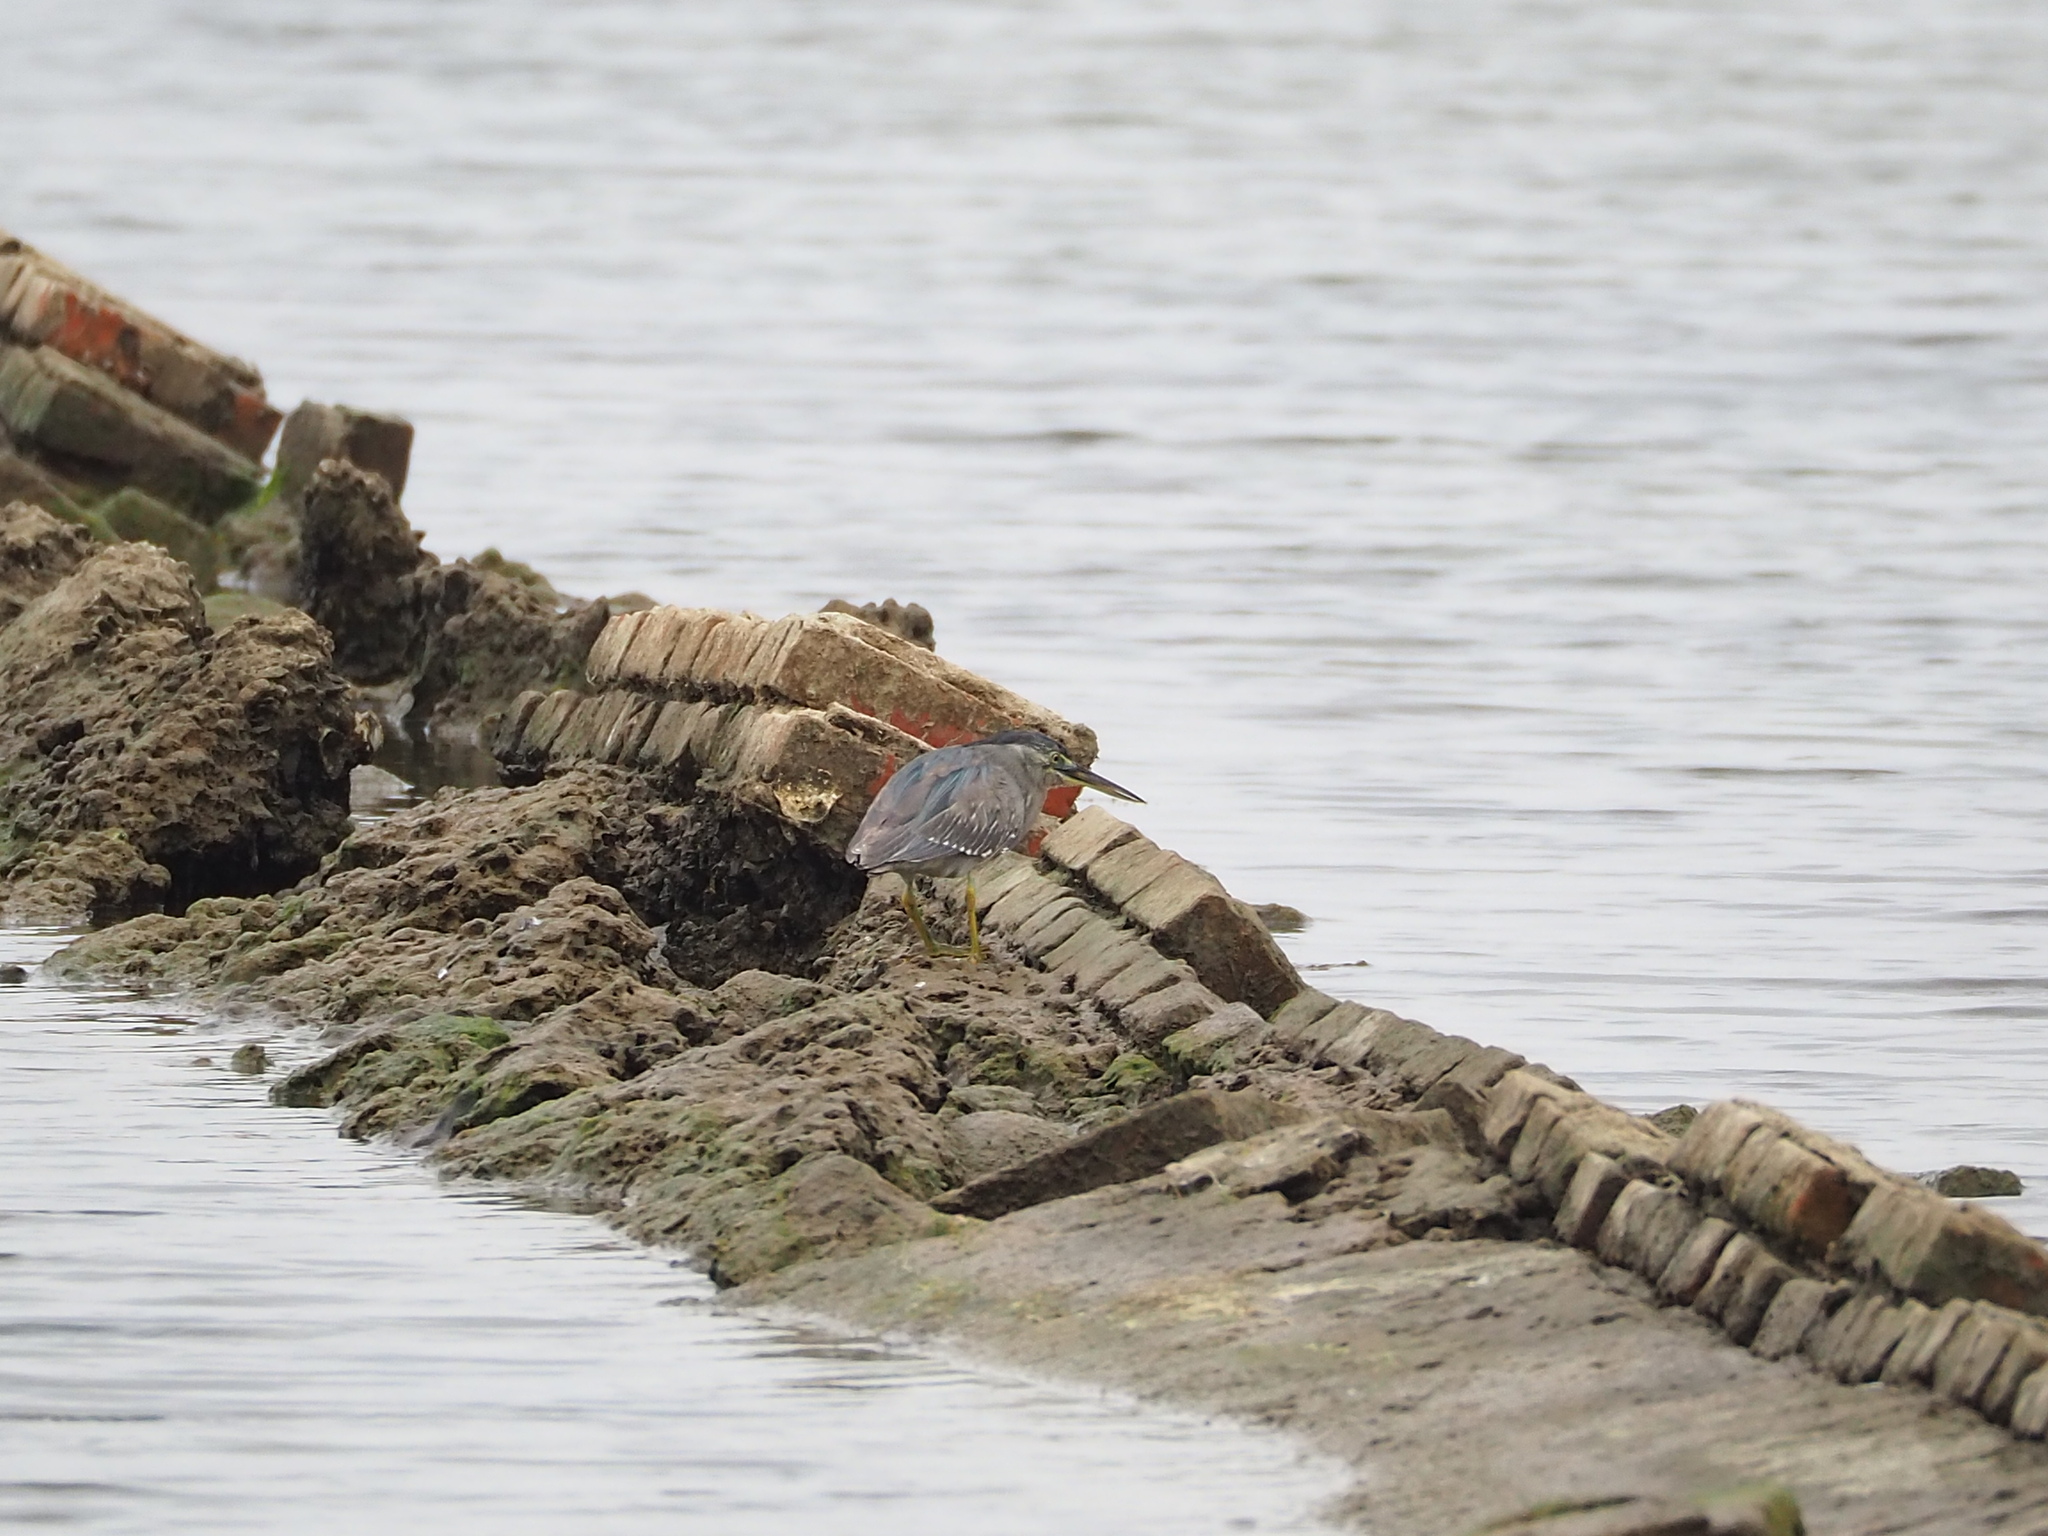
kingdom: Animalia
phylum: Chordata
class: Aves
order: Pelecaniformes
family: Ardeidae
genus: Butorides
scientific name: Butorides striata
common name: Striated heron
